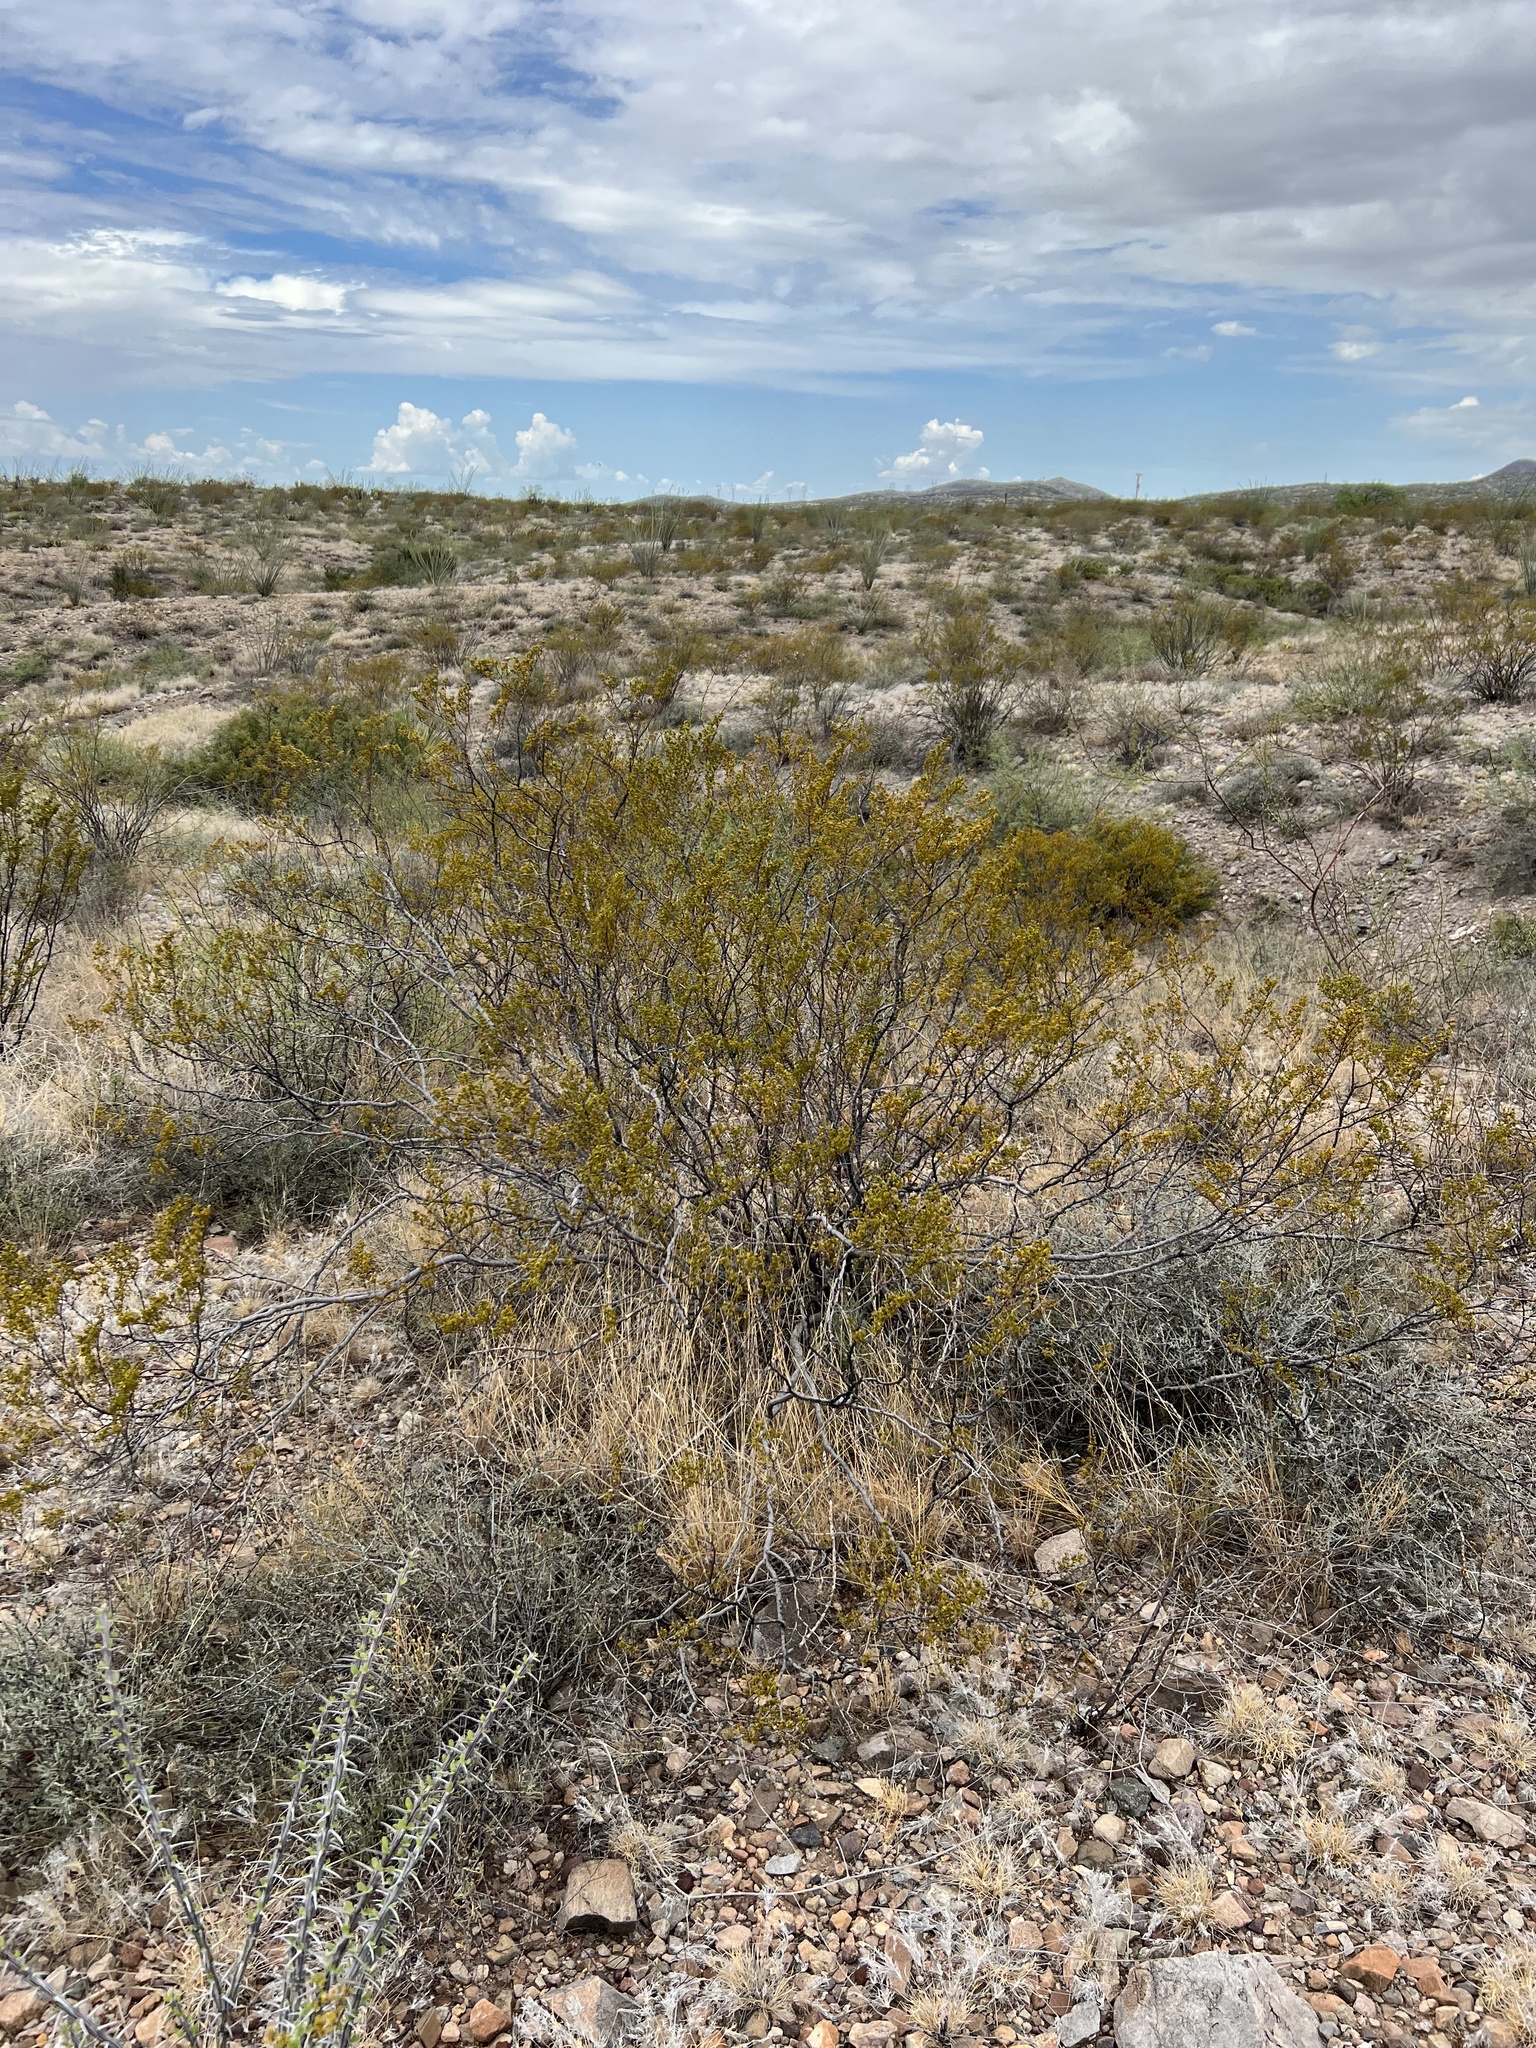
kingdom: Plantae
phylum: Tracheophyta
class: Magnoliopsida
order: Zygophyllales
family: Zygophyllaceae
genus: Larrea
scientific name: Larrea tridentata
